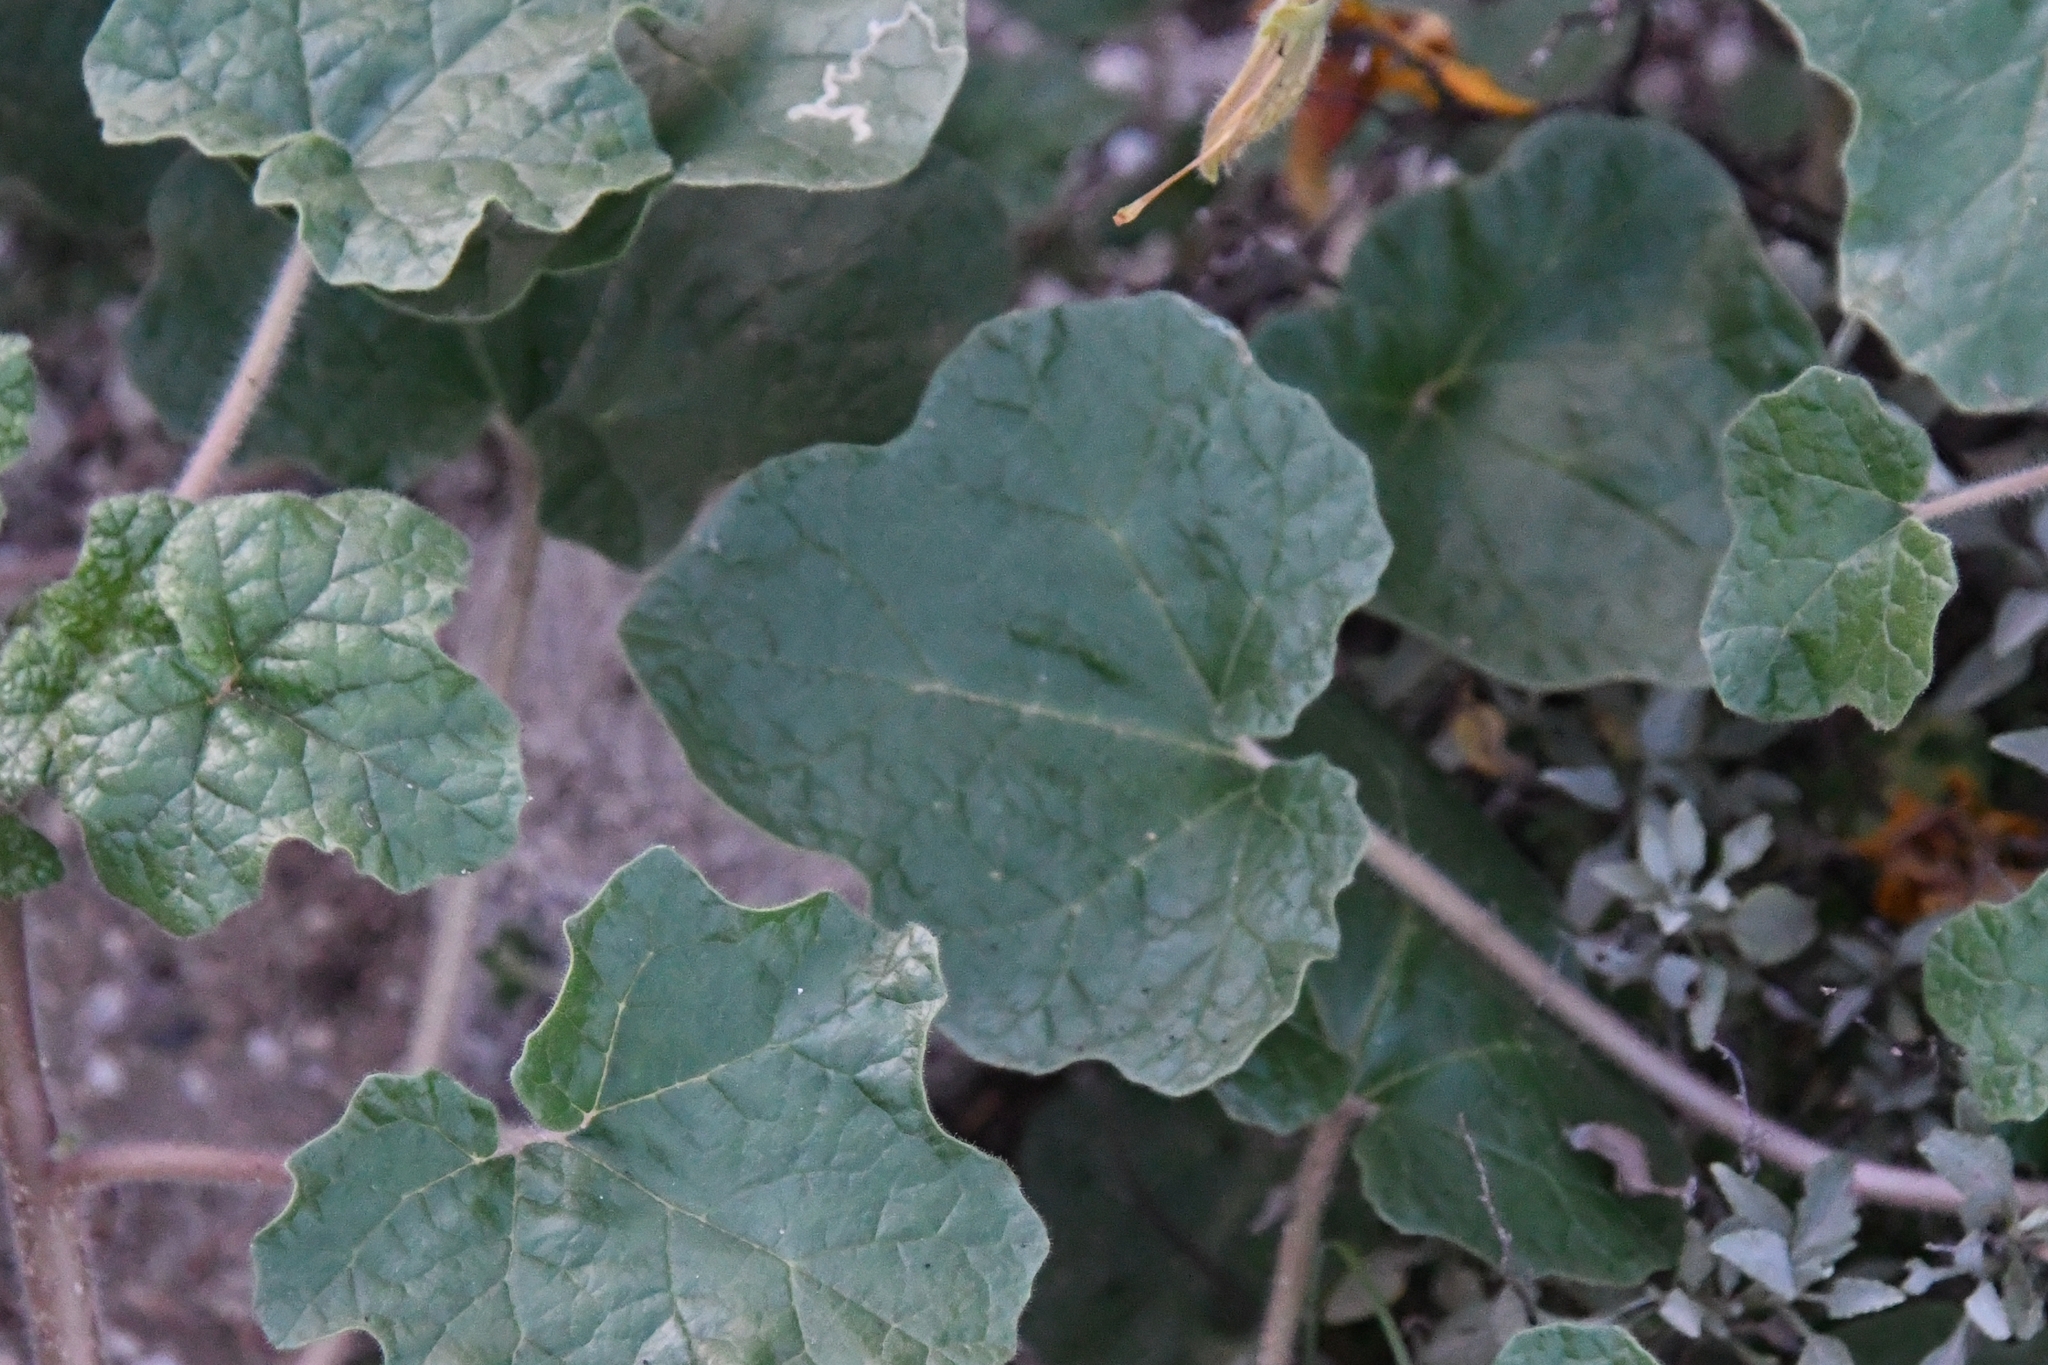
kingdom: Plantae
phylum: Tracheophyta
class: Magnoliopsida
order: Lamiales
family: Martyniaceae
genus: Proboscidea
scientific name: Proboscidea althaeifolia
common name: Desert unicorn-plant
